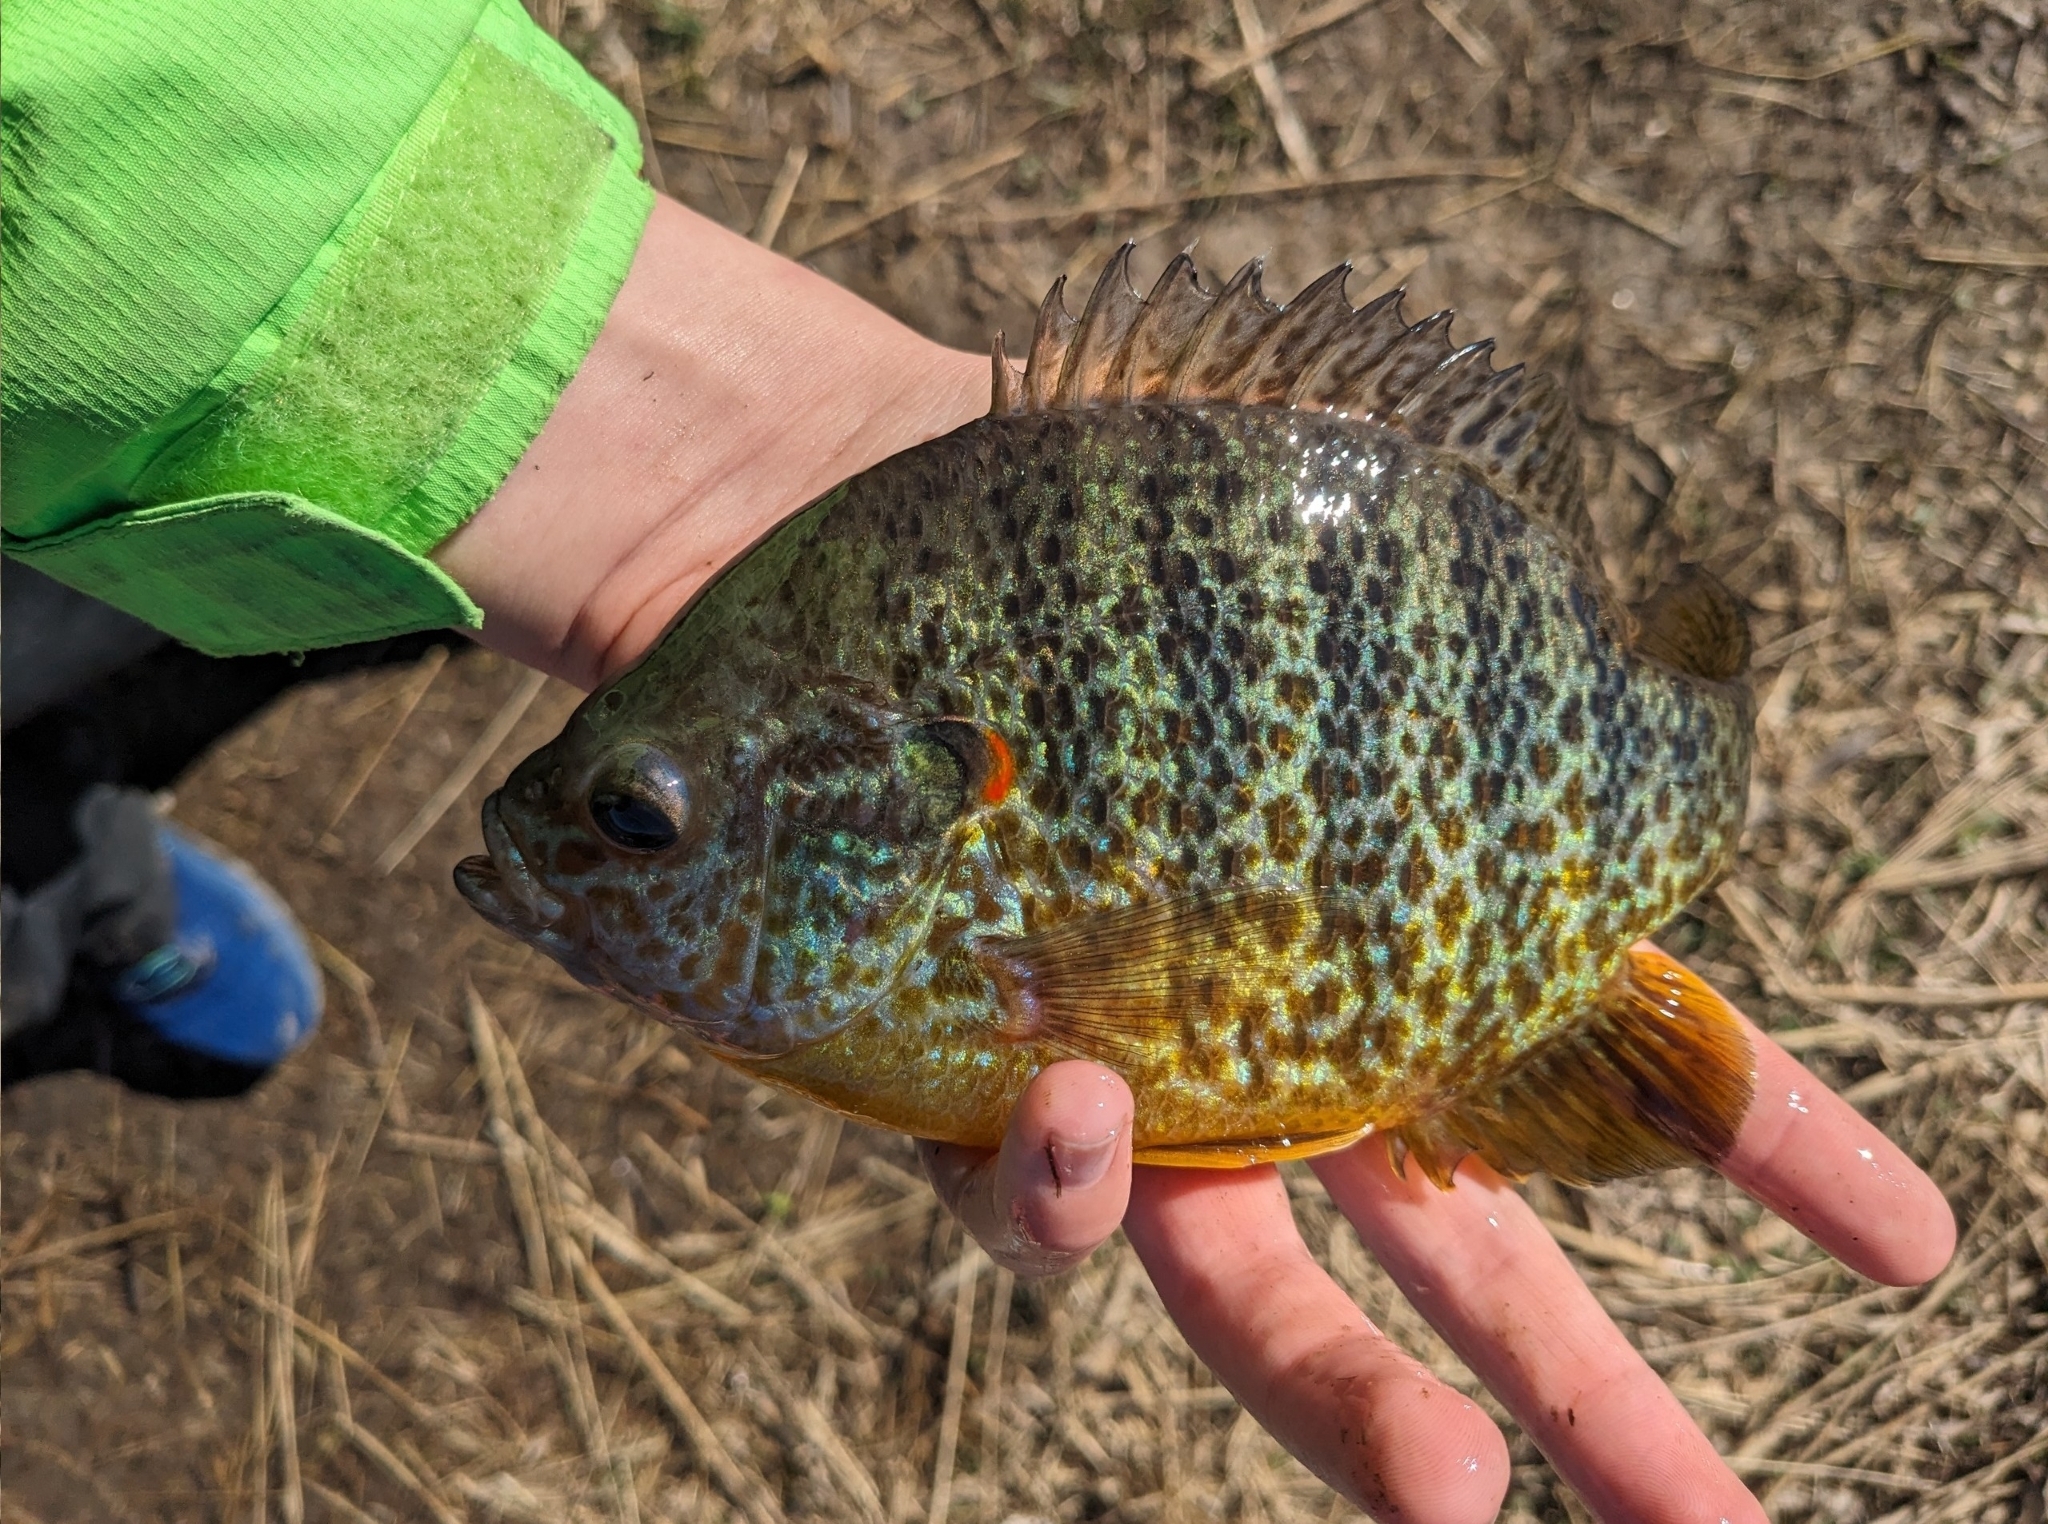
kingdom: Animalia
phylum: Chordata
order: Perciformes
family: Centrarchidae
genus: Lepomis
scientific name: Lepomis gibbosus
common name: Pumpkinseed
